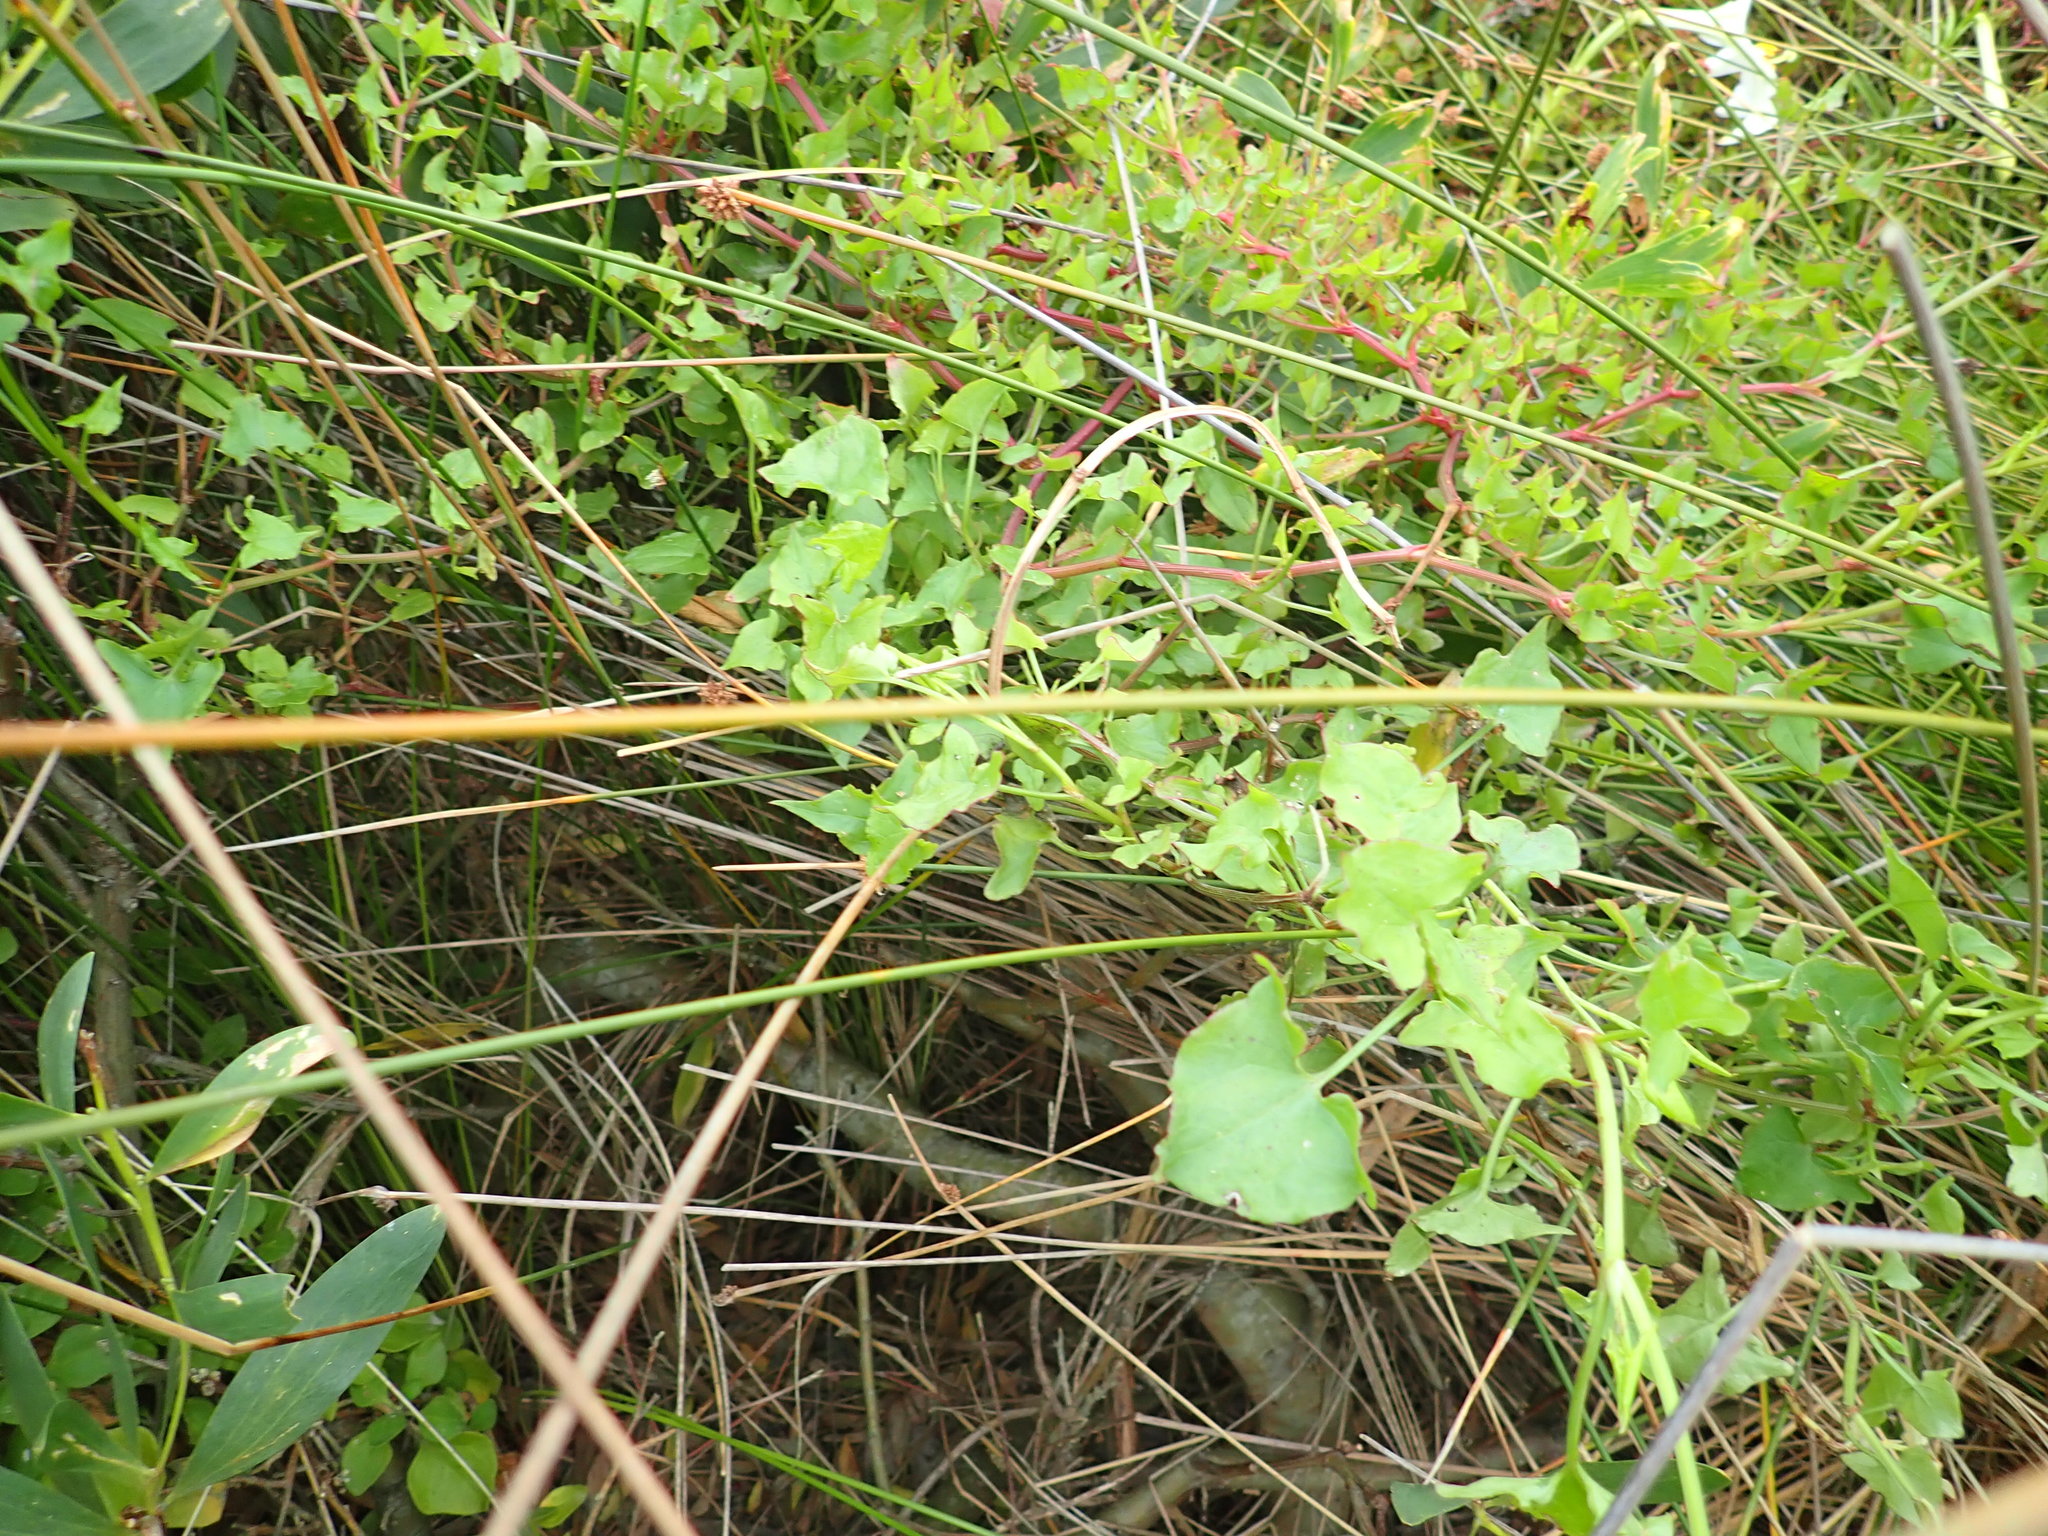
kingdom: Plantae
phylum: Tracheophyta
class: Magnoliopsida
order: Caryophyllales
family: Polygonaceae
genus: Rumex
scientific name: Rumex sagittatus
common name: Climbing dock
